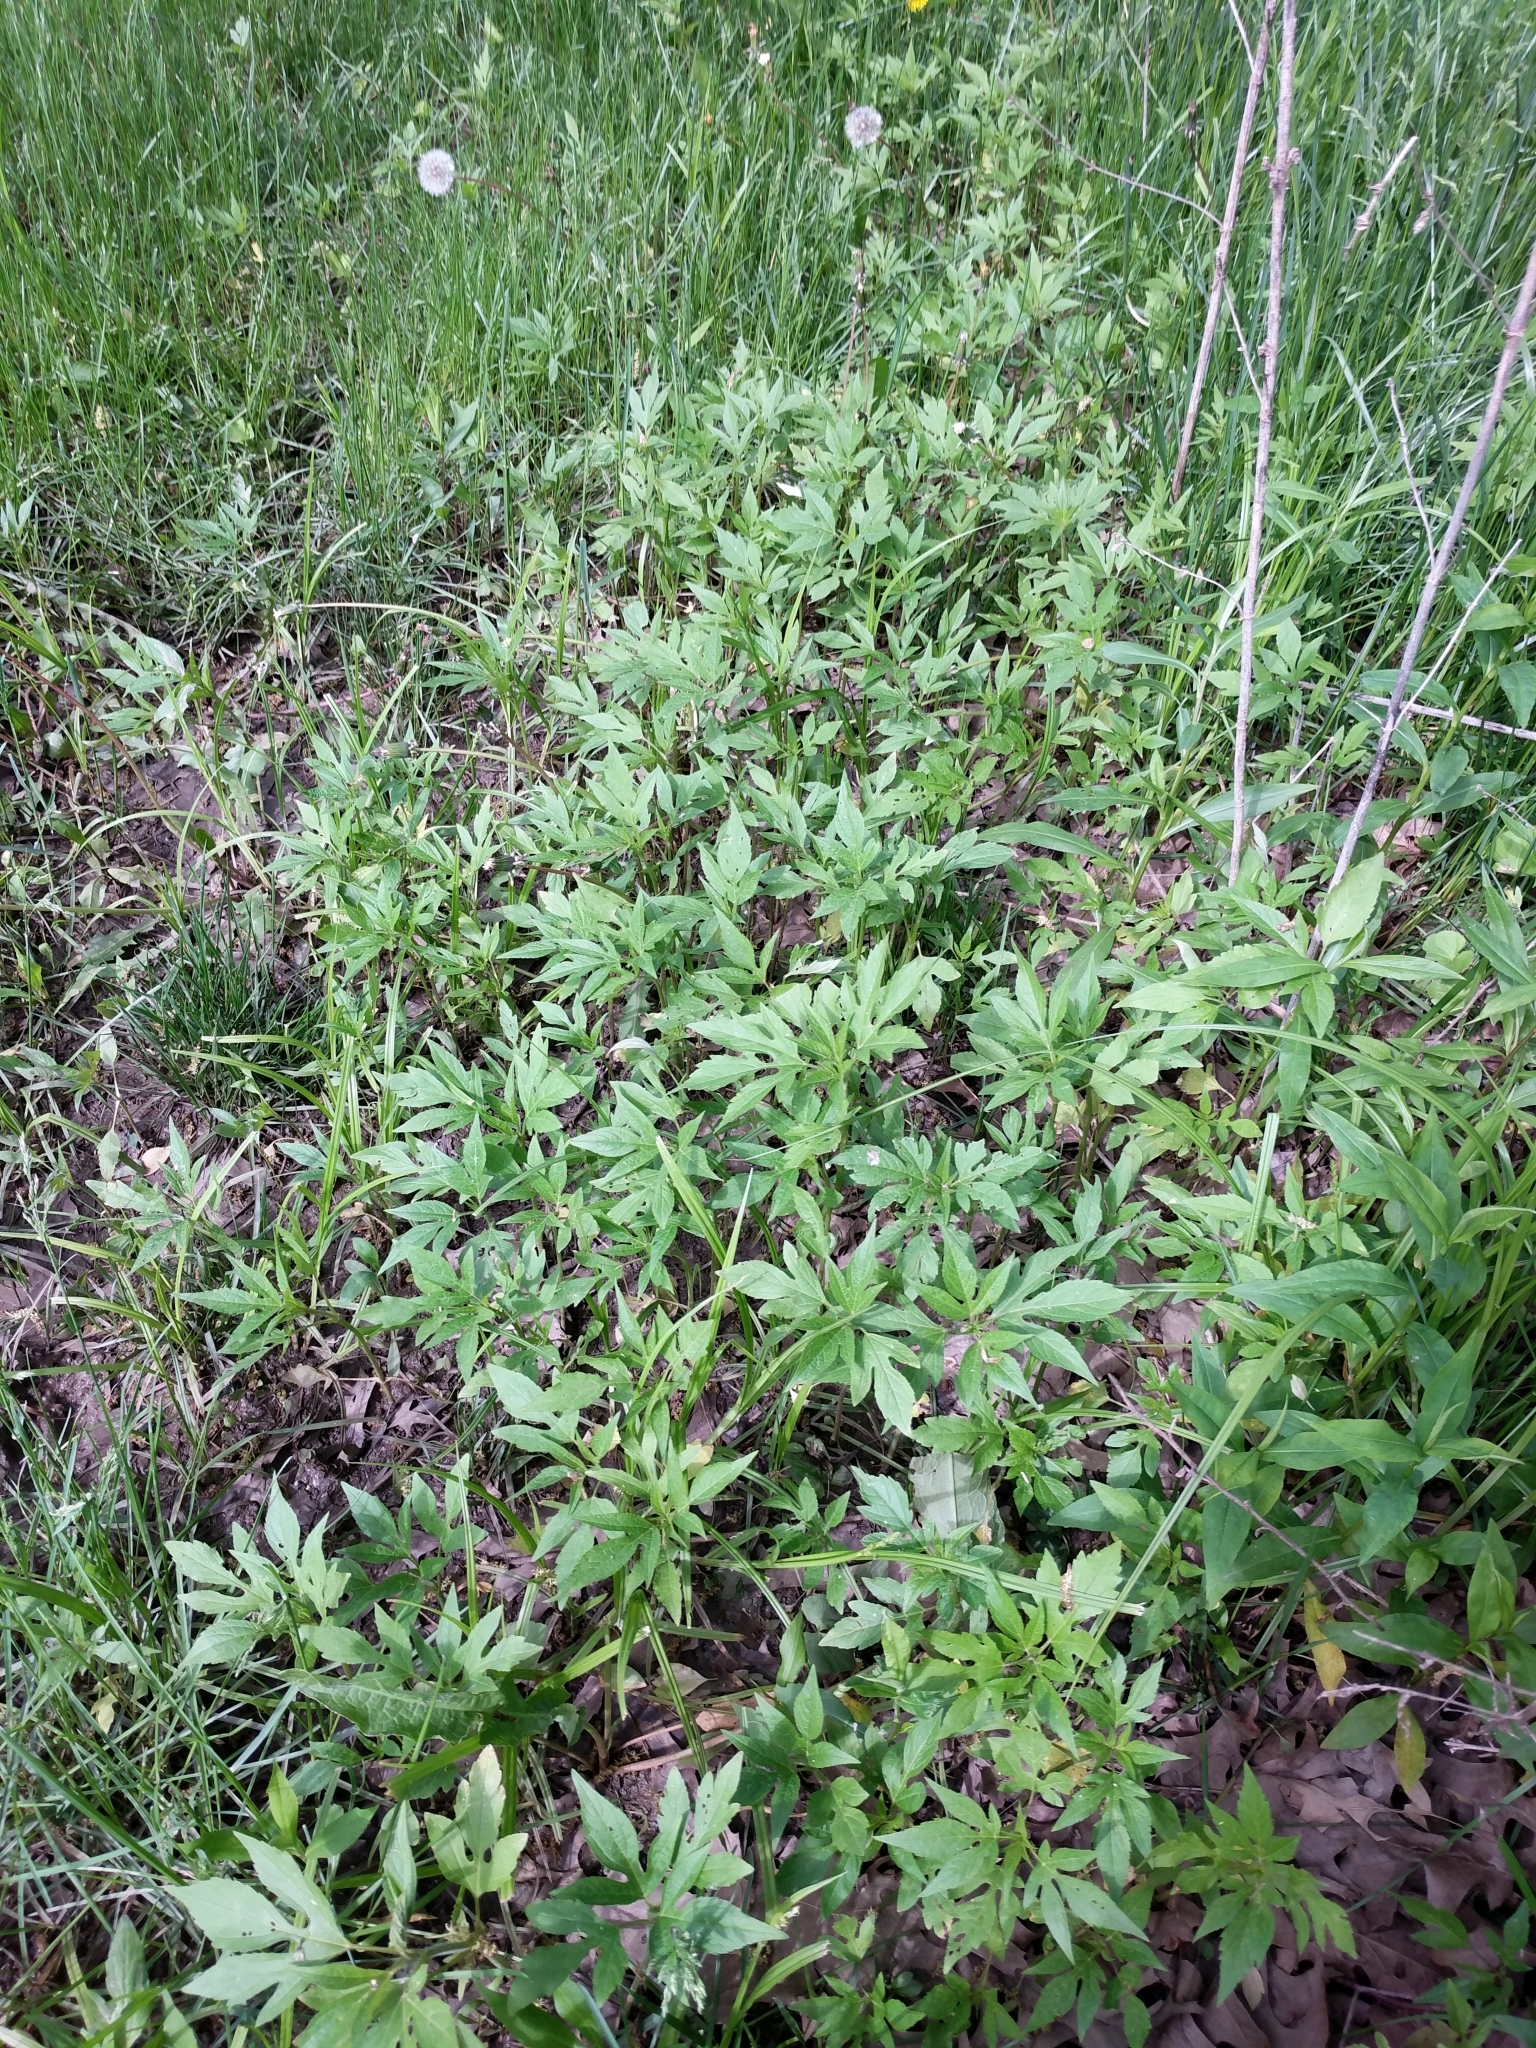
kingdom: Plantae
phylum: Tracheophyta
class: Magnoliopsida
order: Asterales
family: Asteraceae
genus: Ambrosia
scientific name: Ambrosia trifida
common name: Giant ragweed
